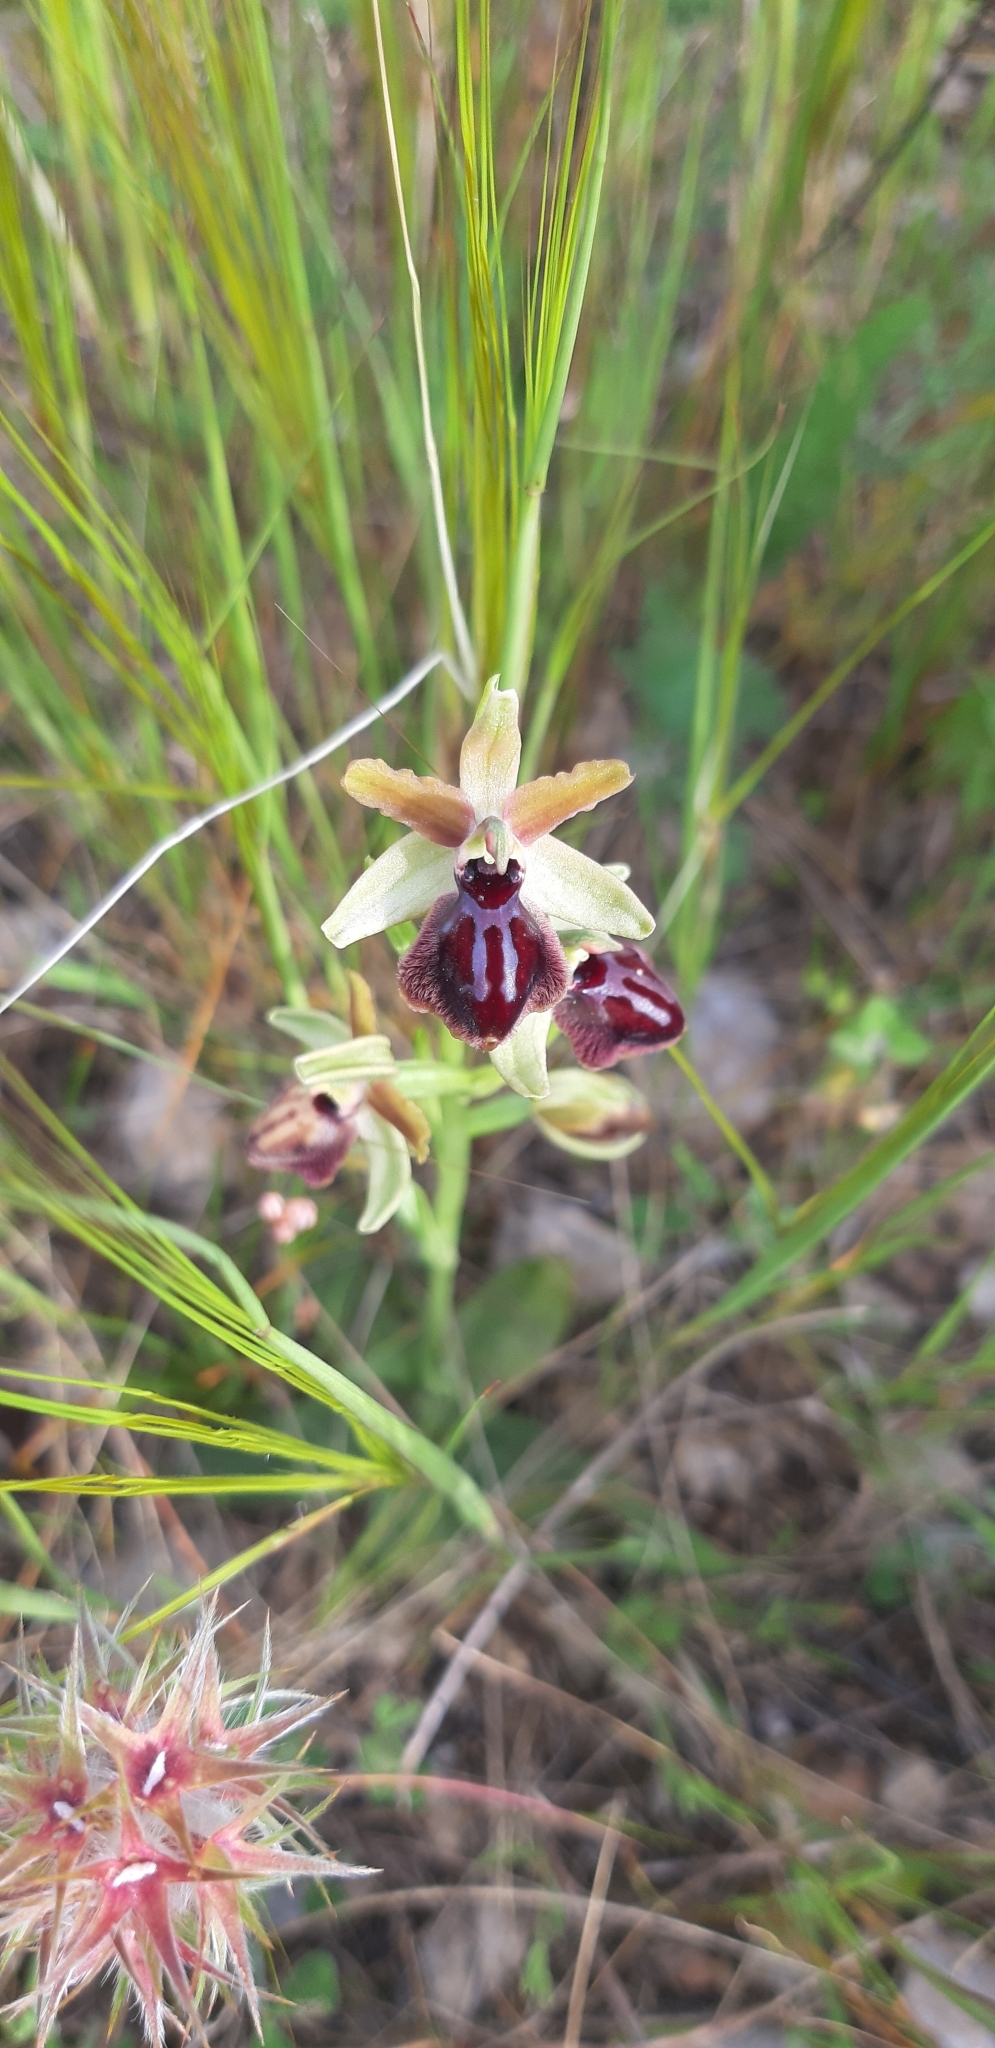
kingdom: Plantae
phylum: Tracheophyta
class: Liliopsida
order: Asparagales
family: Orchidaceae
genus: Ophrys
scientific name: Ophrys sphegodes
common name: Early spider-orchid
